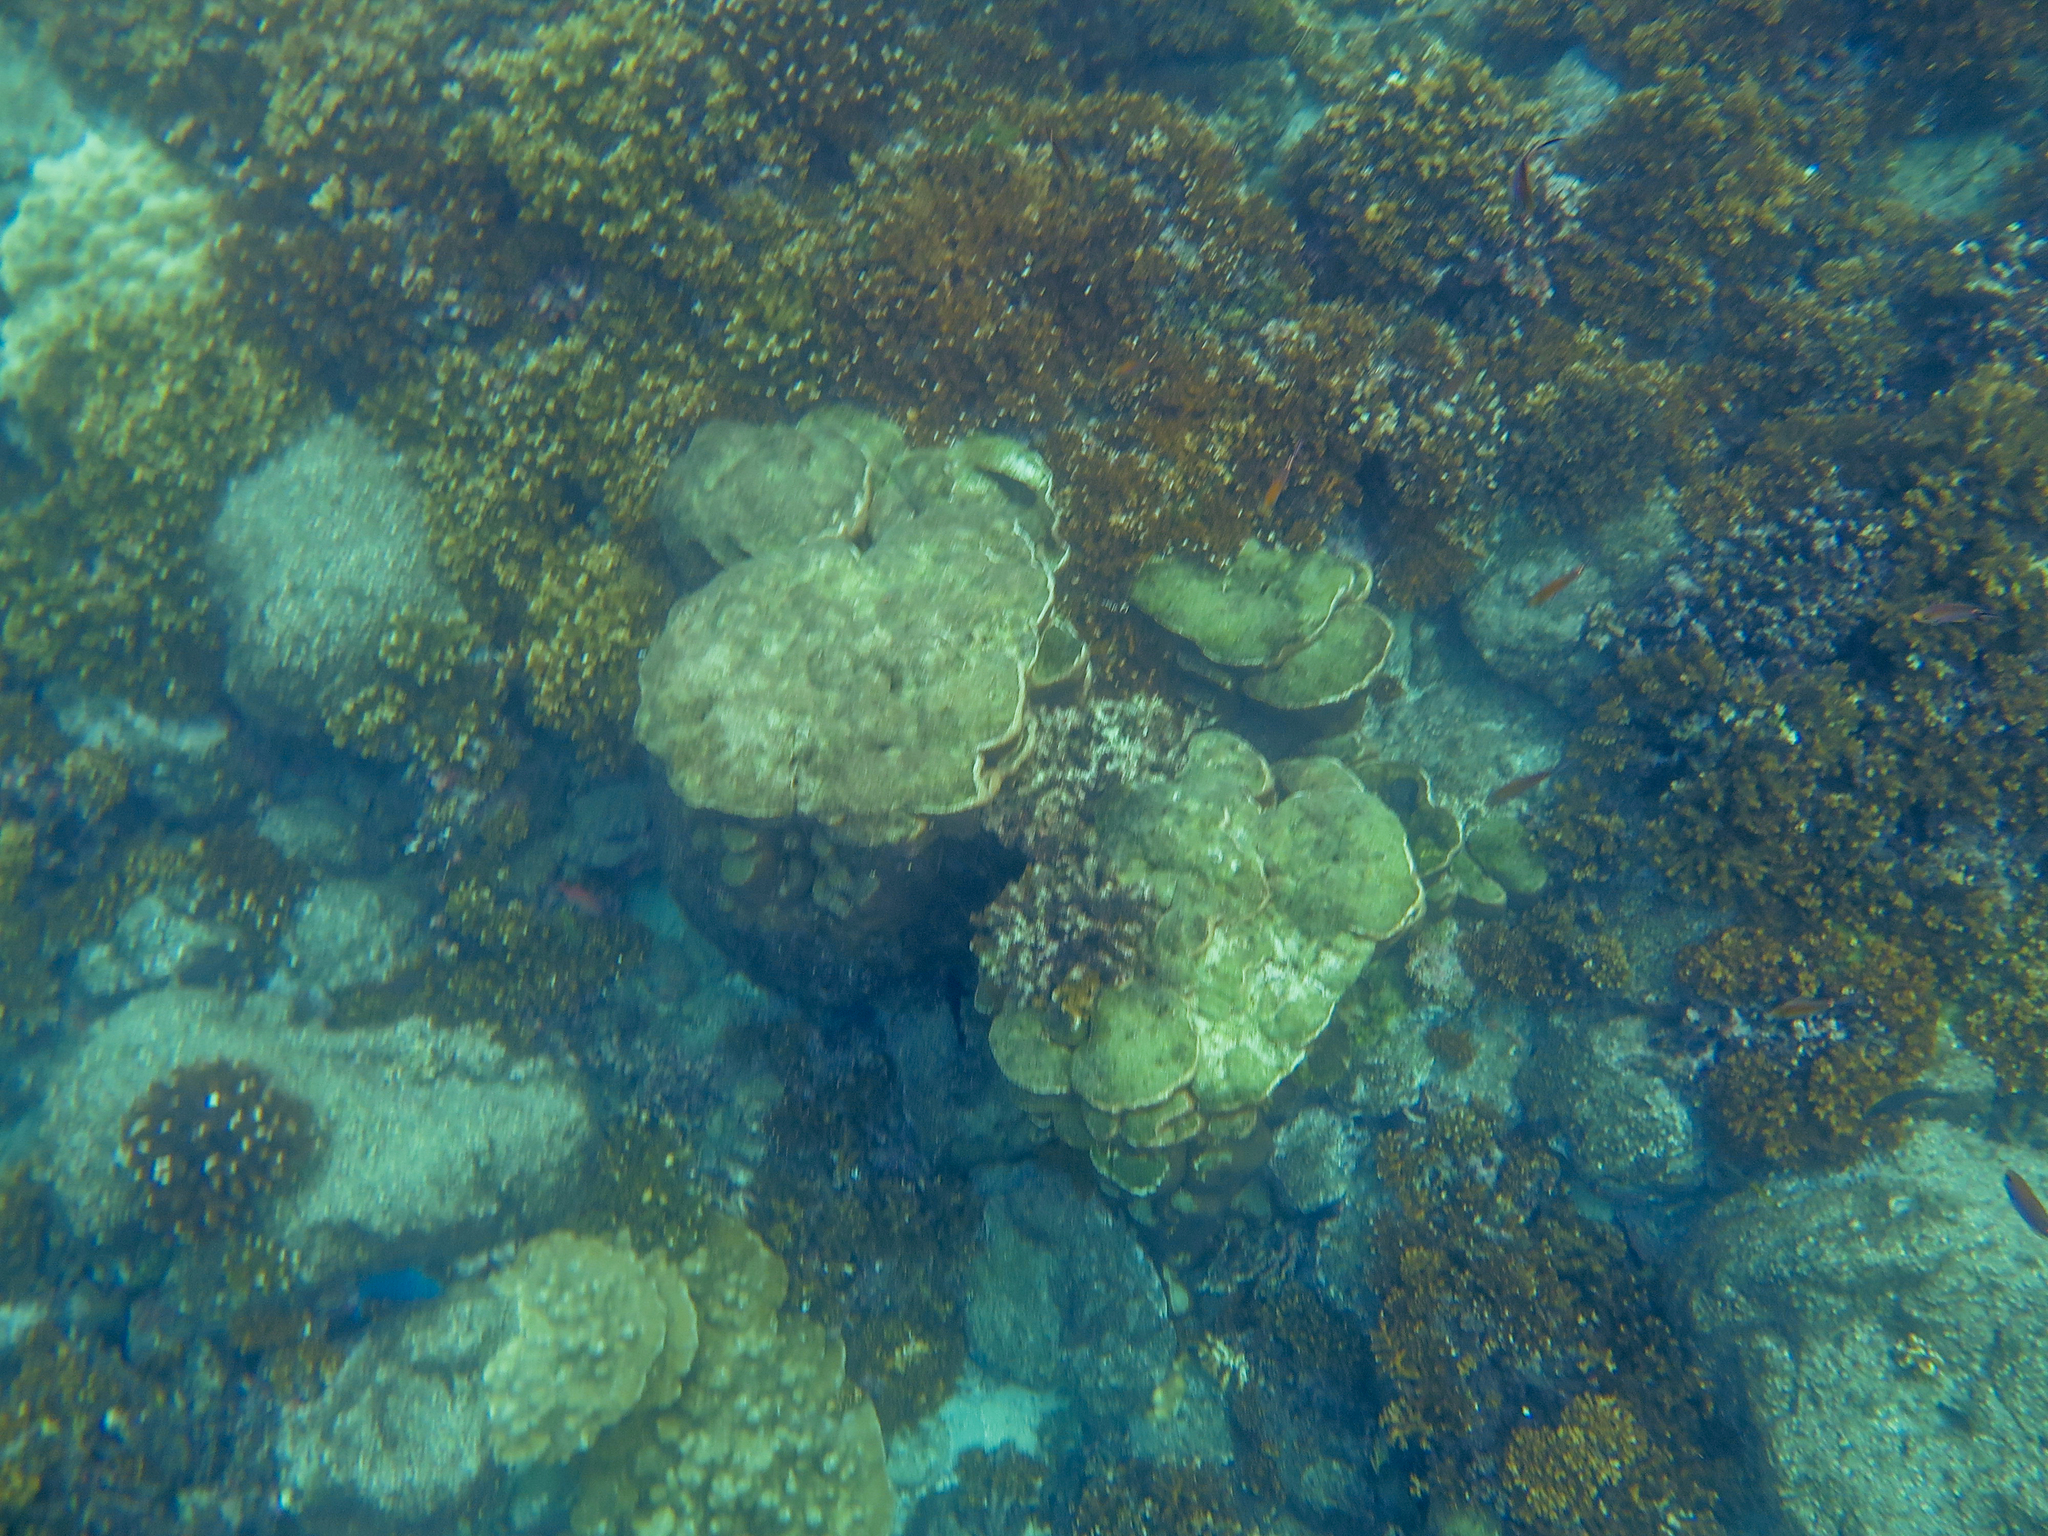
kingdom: Animalia
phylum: Cnidaria
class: Anthozoa
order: Scleractinia
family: Agariciidae
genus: Gardineroseris
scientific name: Gardineroseris planulata
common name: Gardiner's coral
